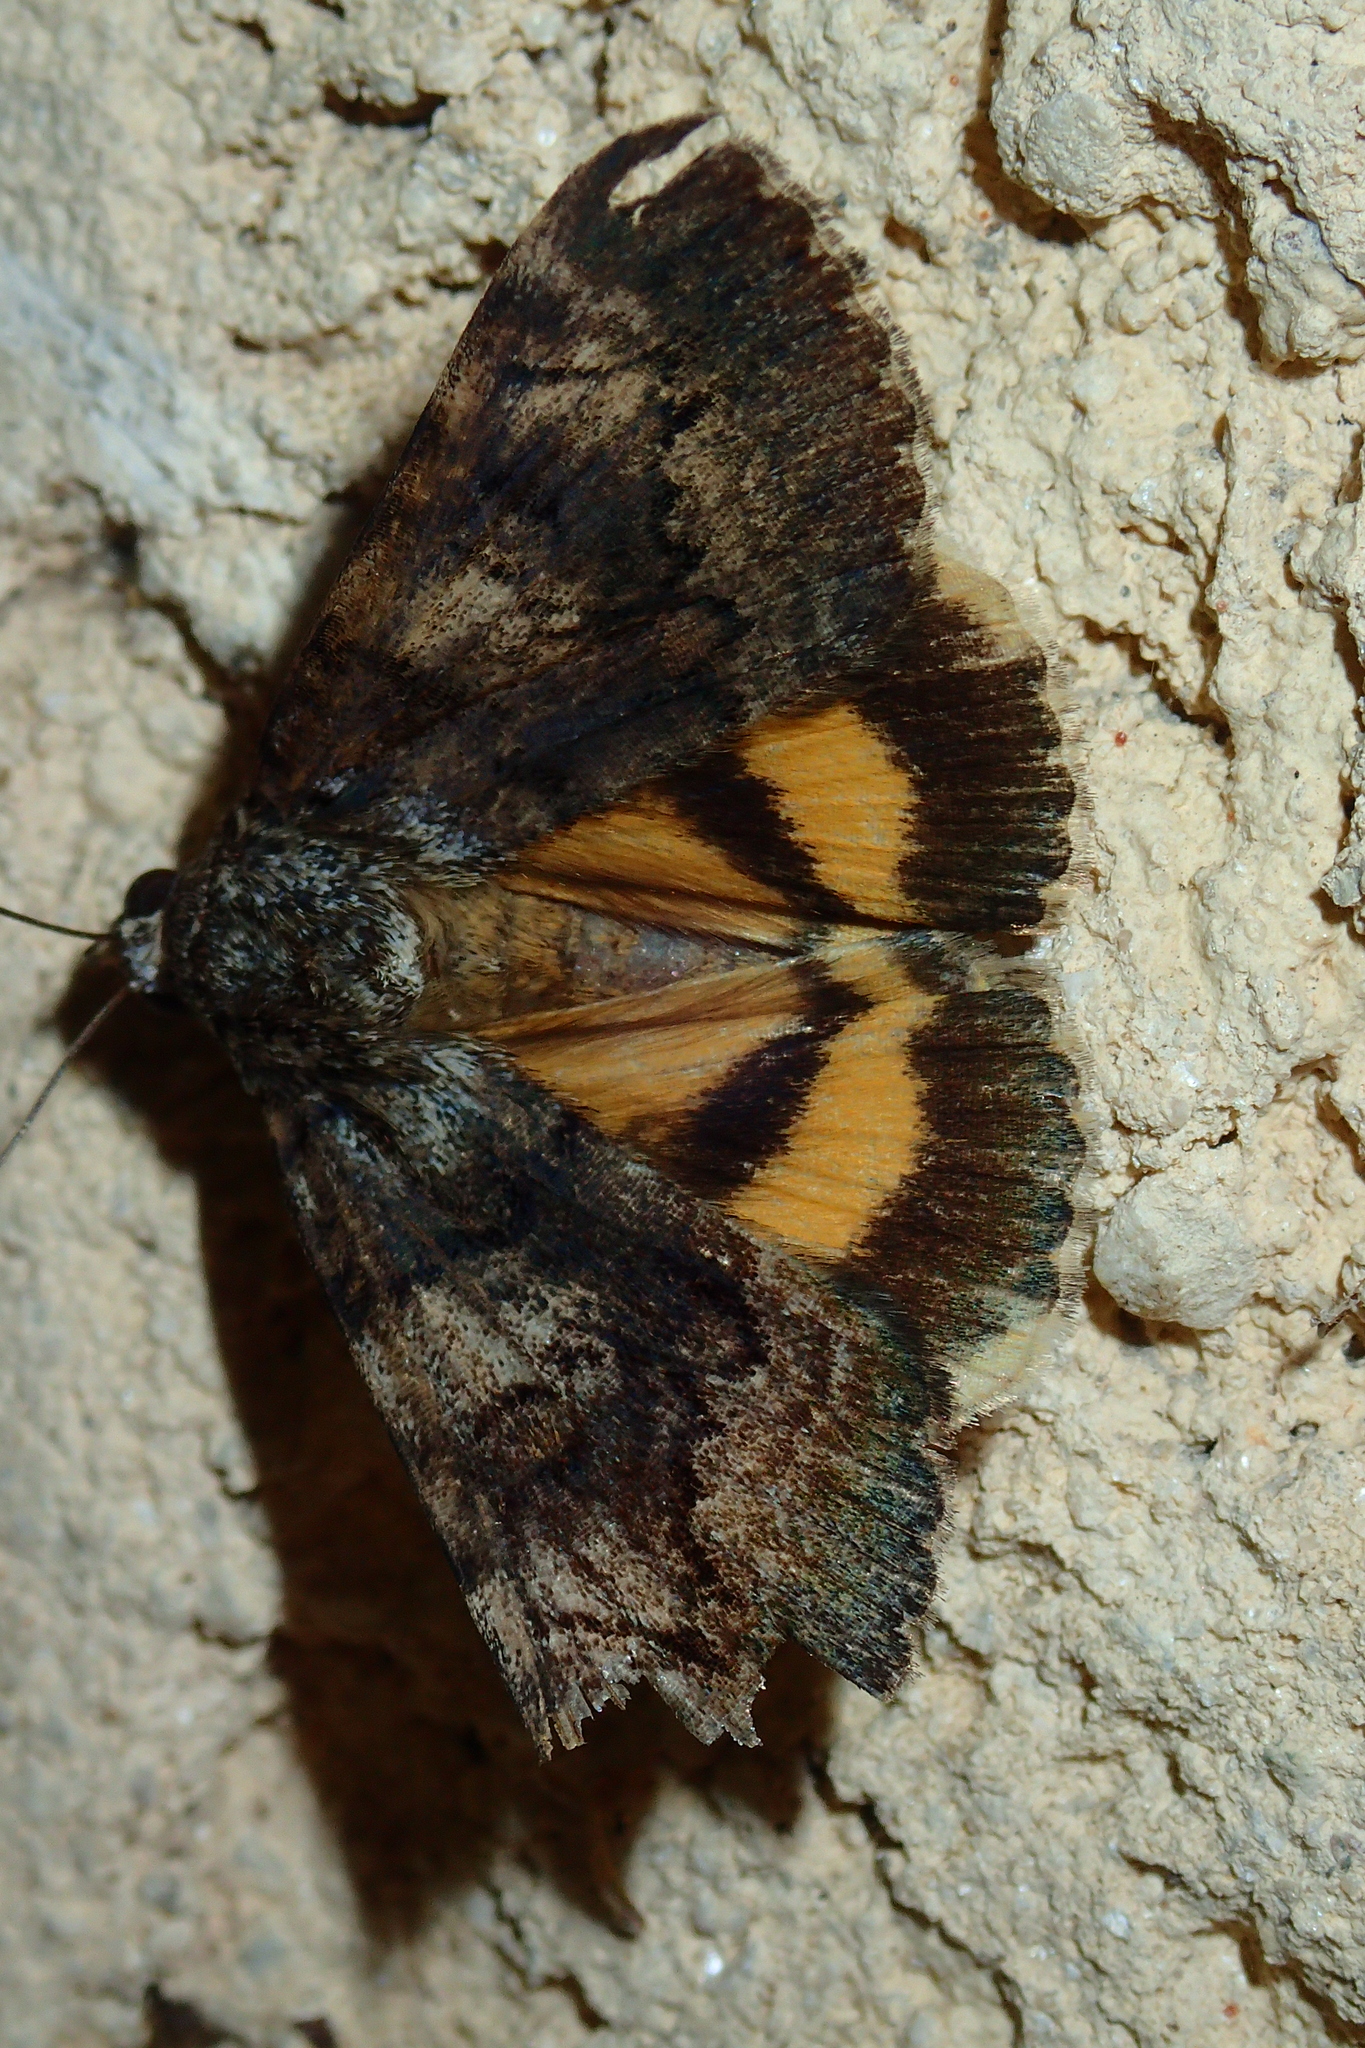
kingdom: Animalia
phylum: Arthropoda
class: Insecta
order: Lepidoptera
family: Erebidae
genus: Catocala
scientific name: Catocala nymphagoga
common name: Oak yellow underwing
